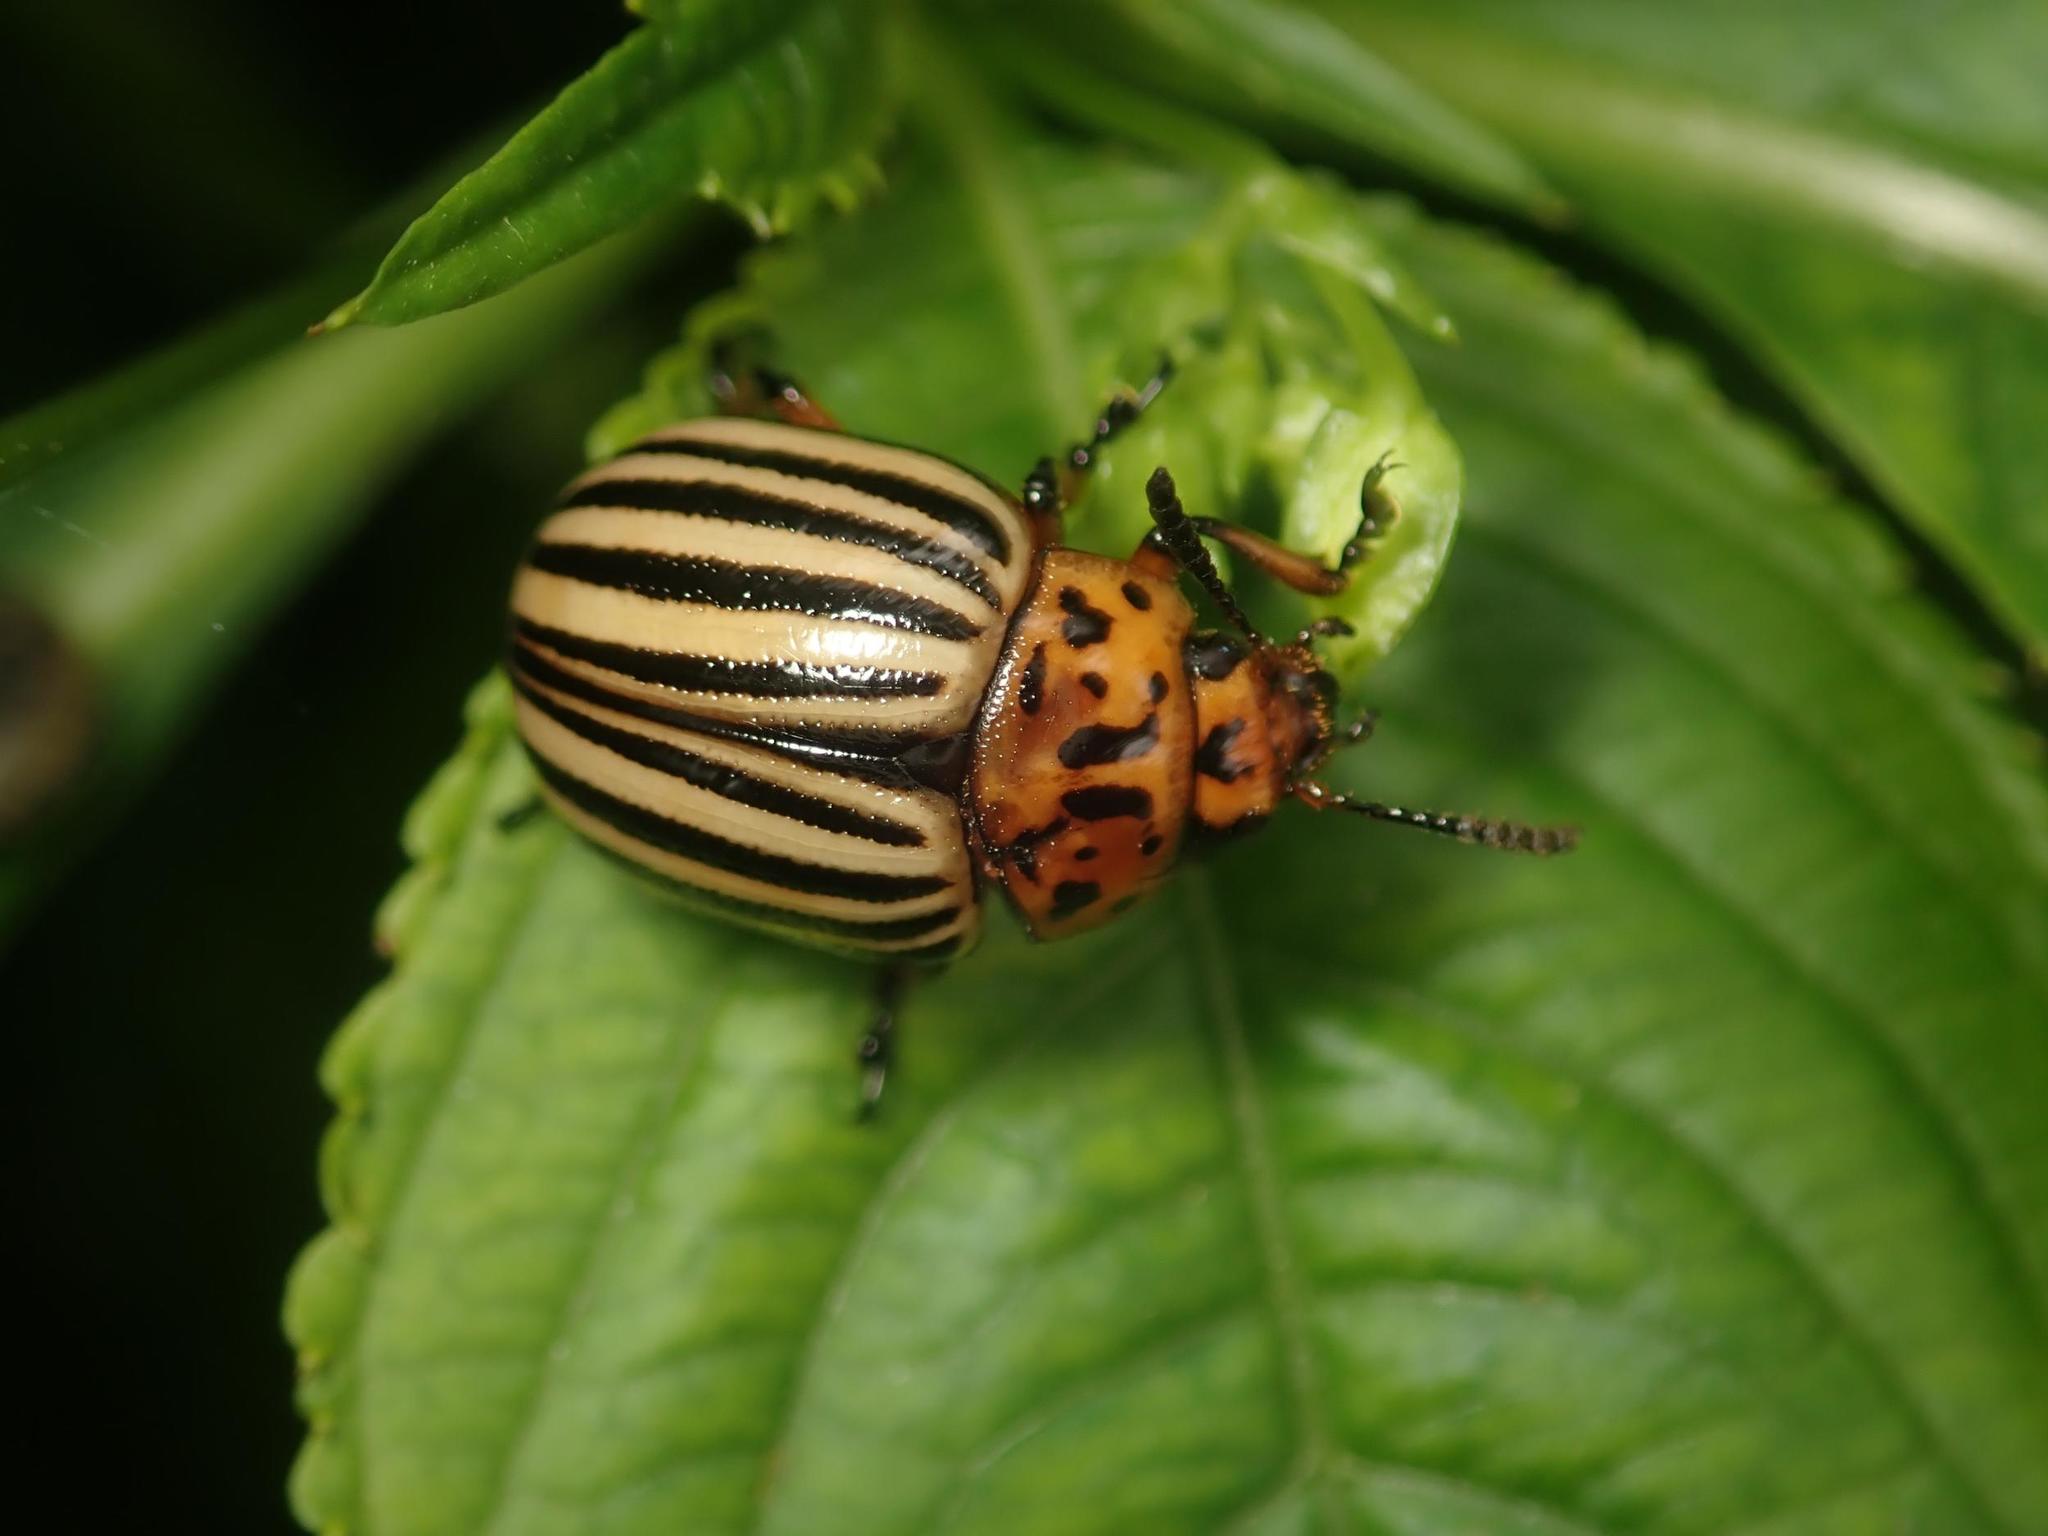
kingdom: Animalia
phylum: Arthropoda
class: Insecta
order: Coleoptera
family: Chrysomelidae
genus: Leptinotarsa
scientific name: Leptinotarsa decemlineata
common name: Colorado potato beetle
